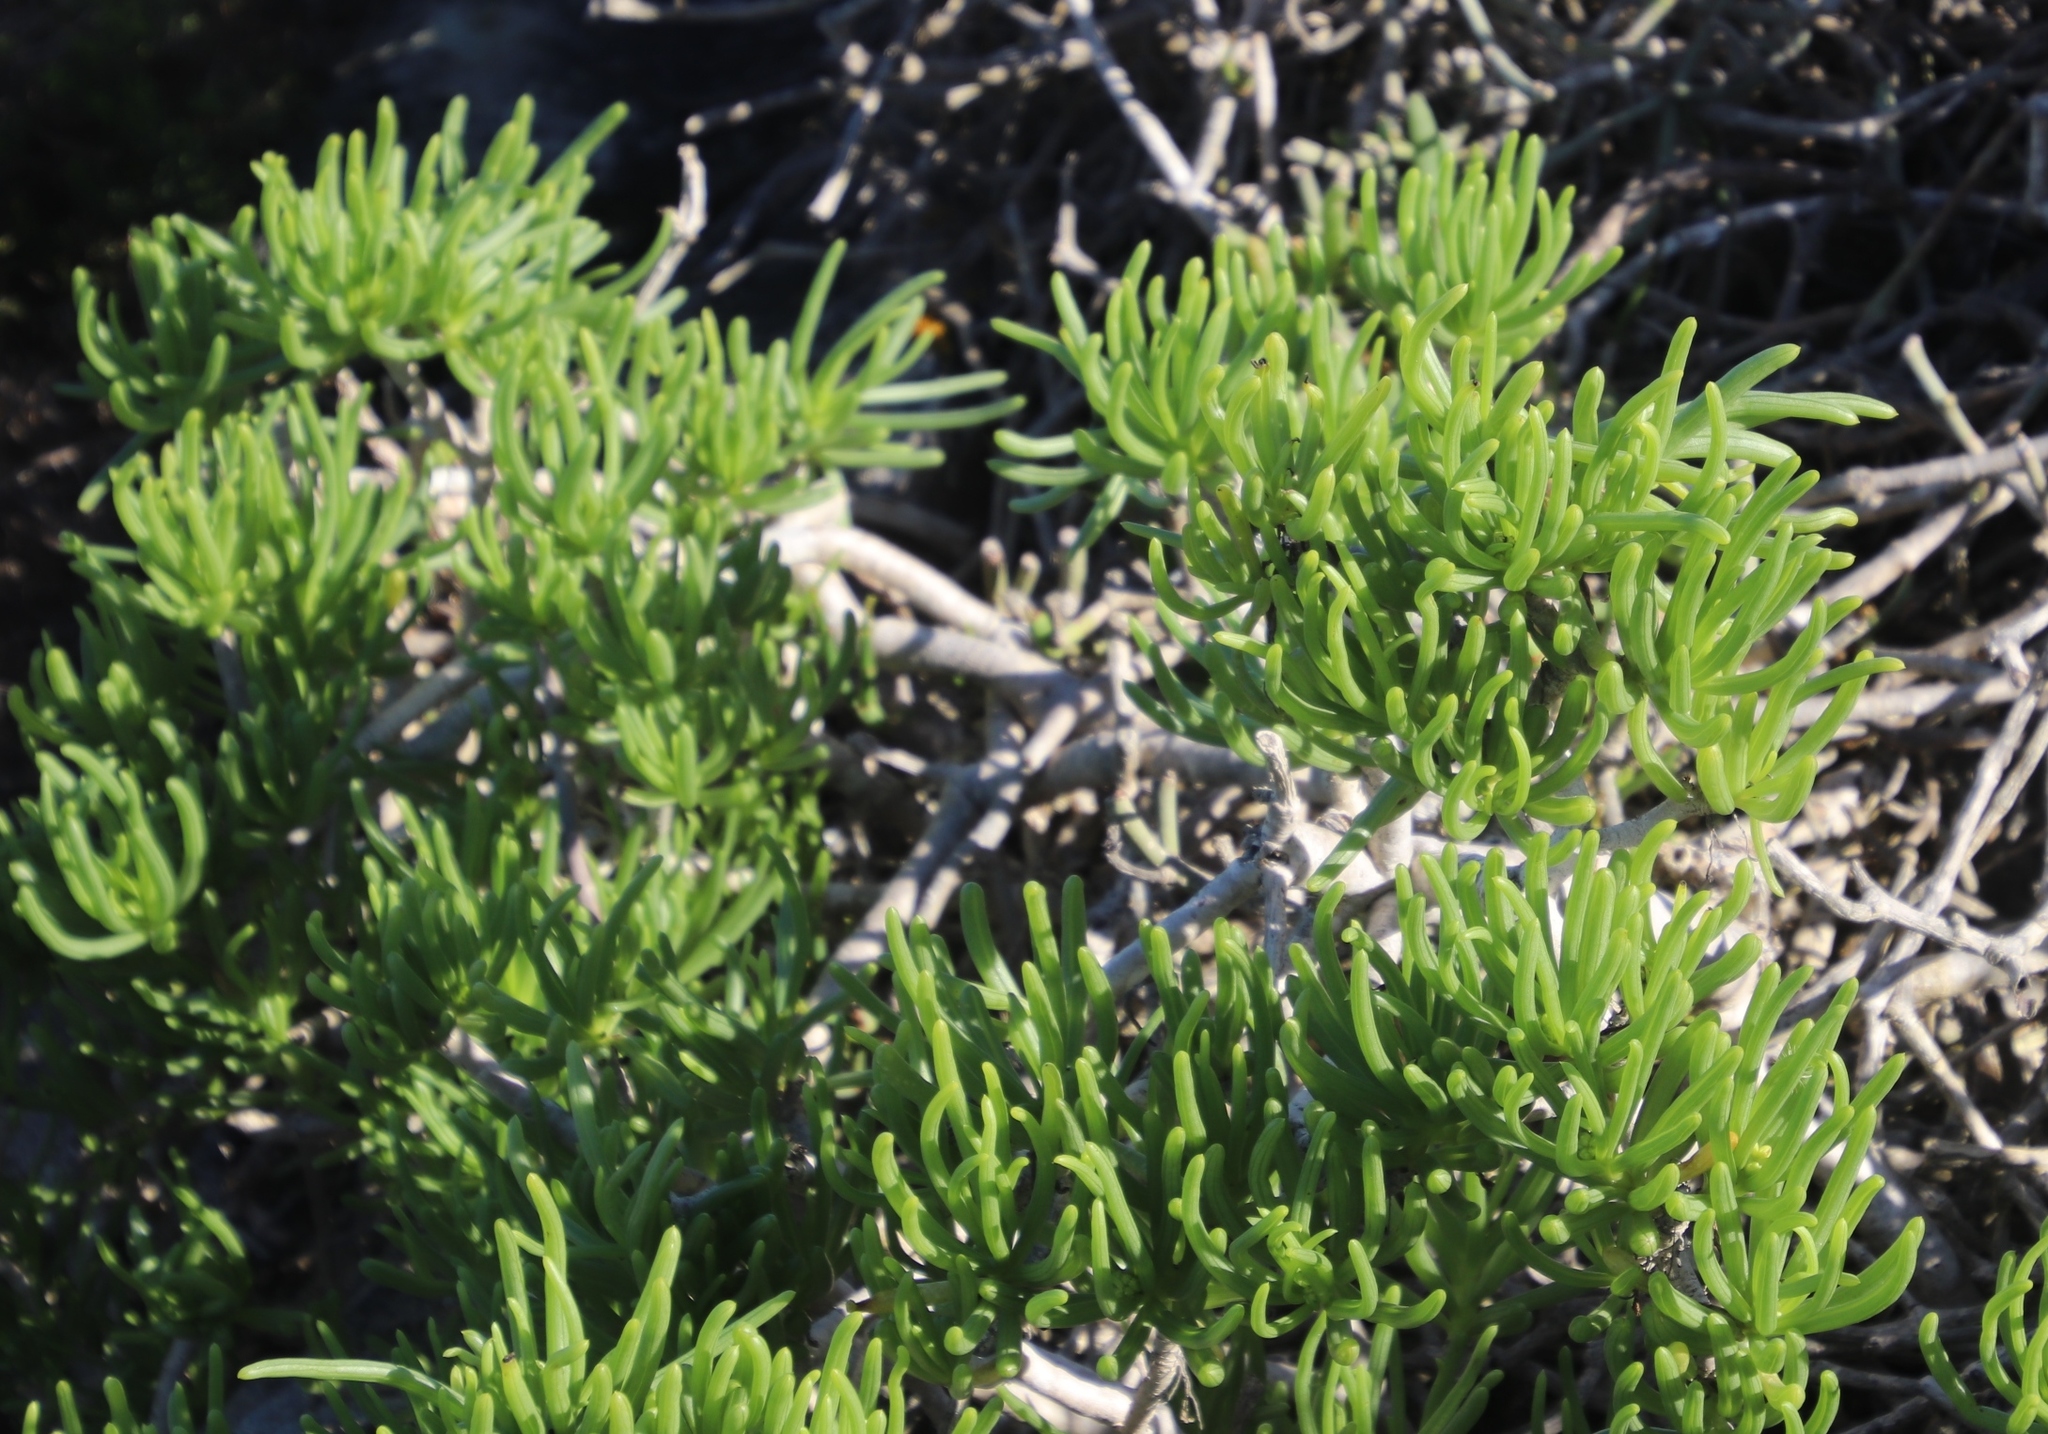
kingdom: Plantae
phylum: Tracheophyta
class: Magnoliopsida
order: Asterales
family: Asteraceae
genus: Curio
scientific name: Curio corymbifer
